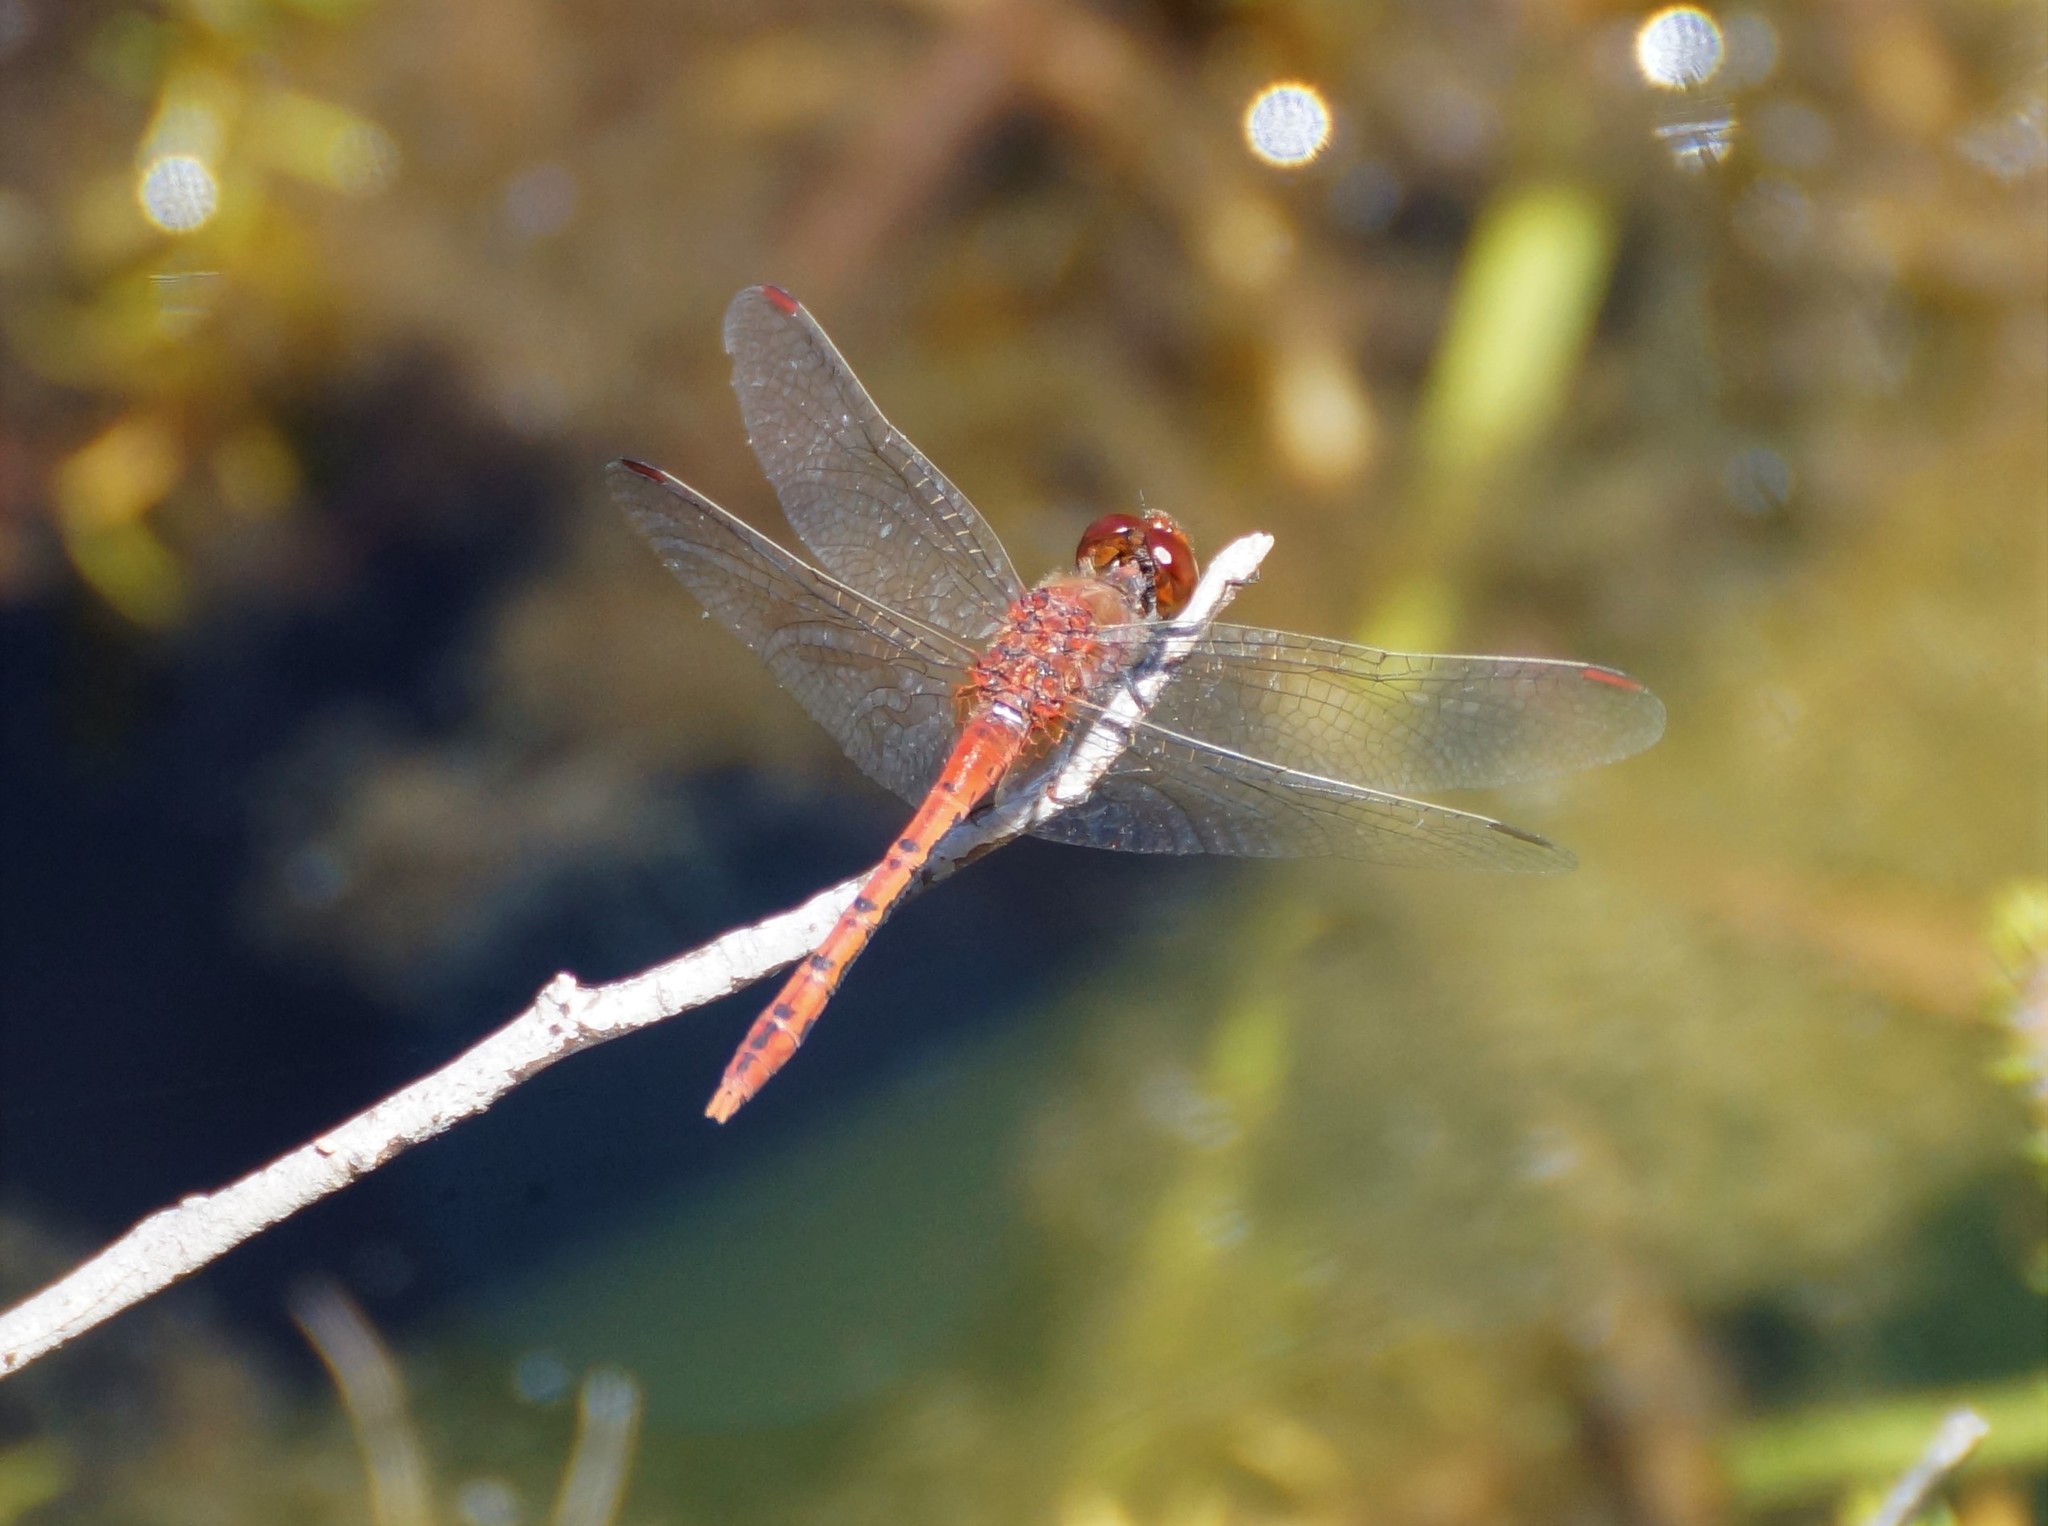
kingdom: Animalia
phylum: Arthropoda
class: Insecta
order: Odonata
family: Libellulidae
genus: Diplacodes
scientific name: Diplacodes bipunctata
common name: Red percher dragonfly
